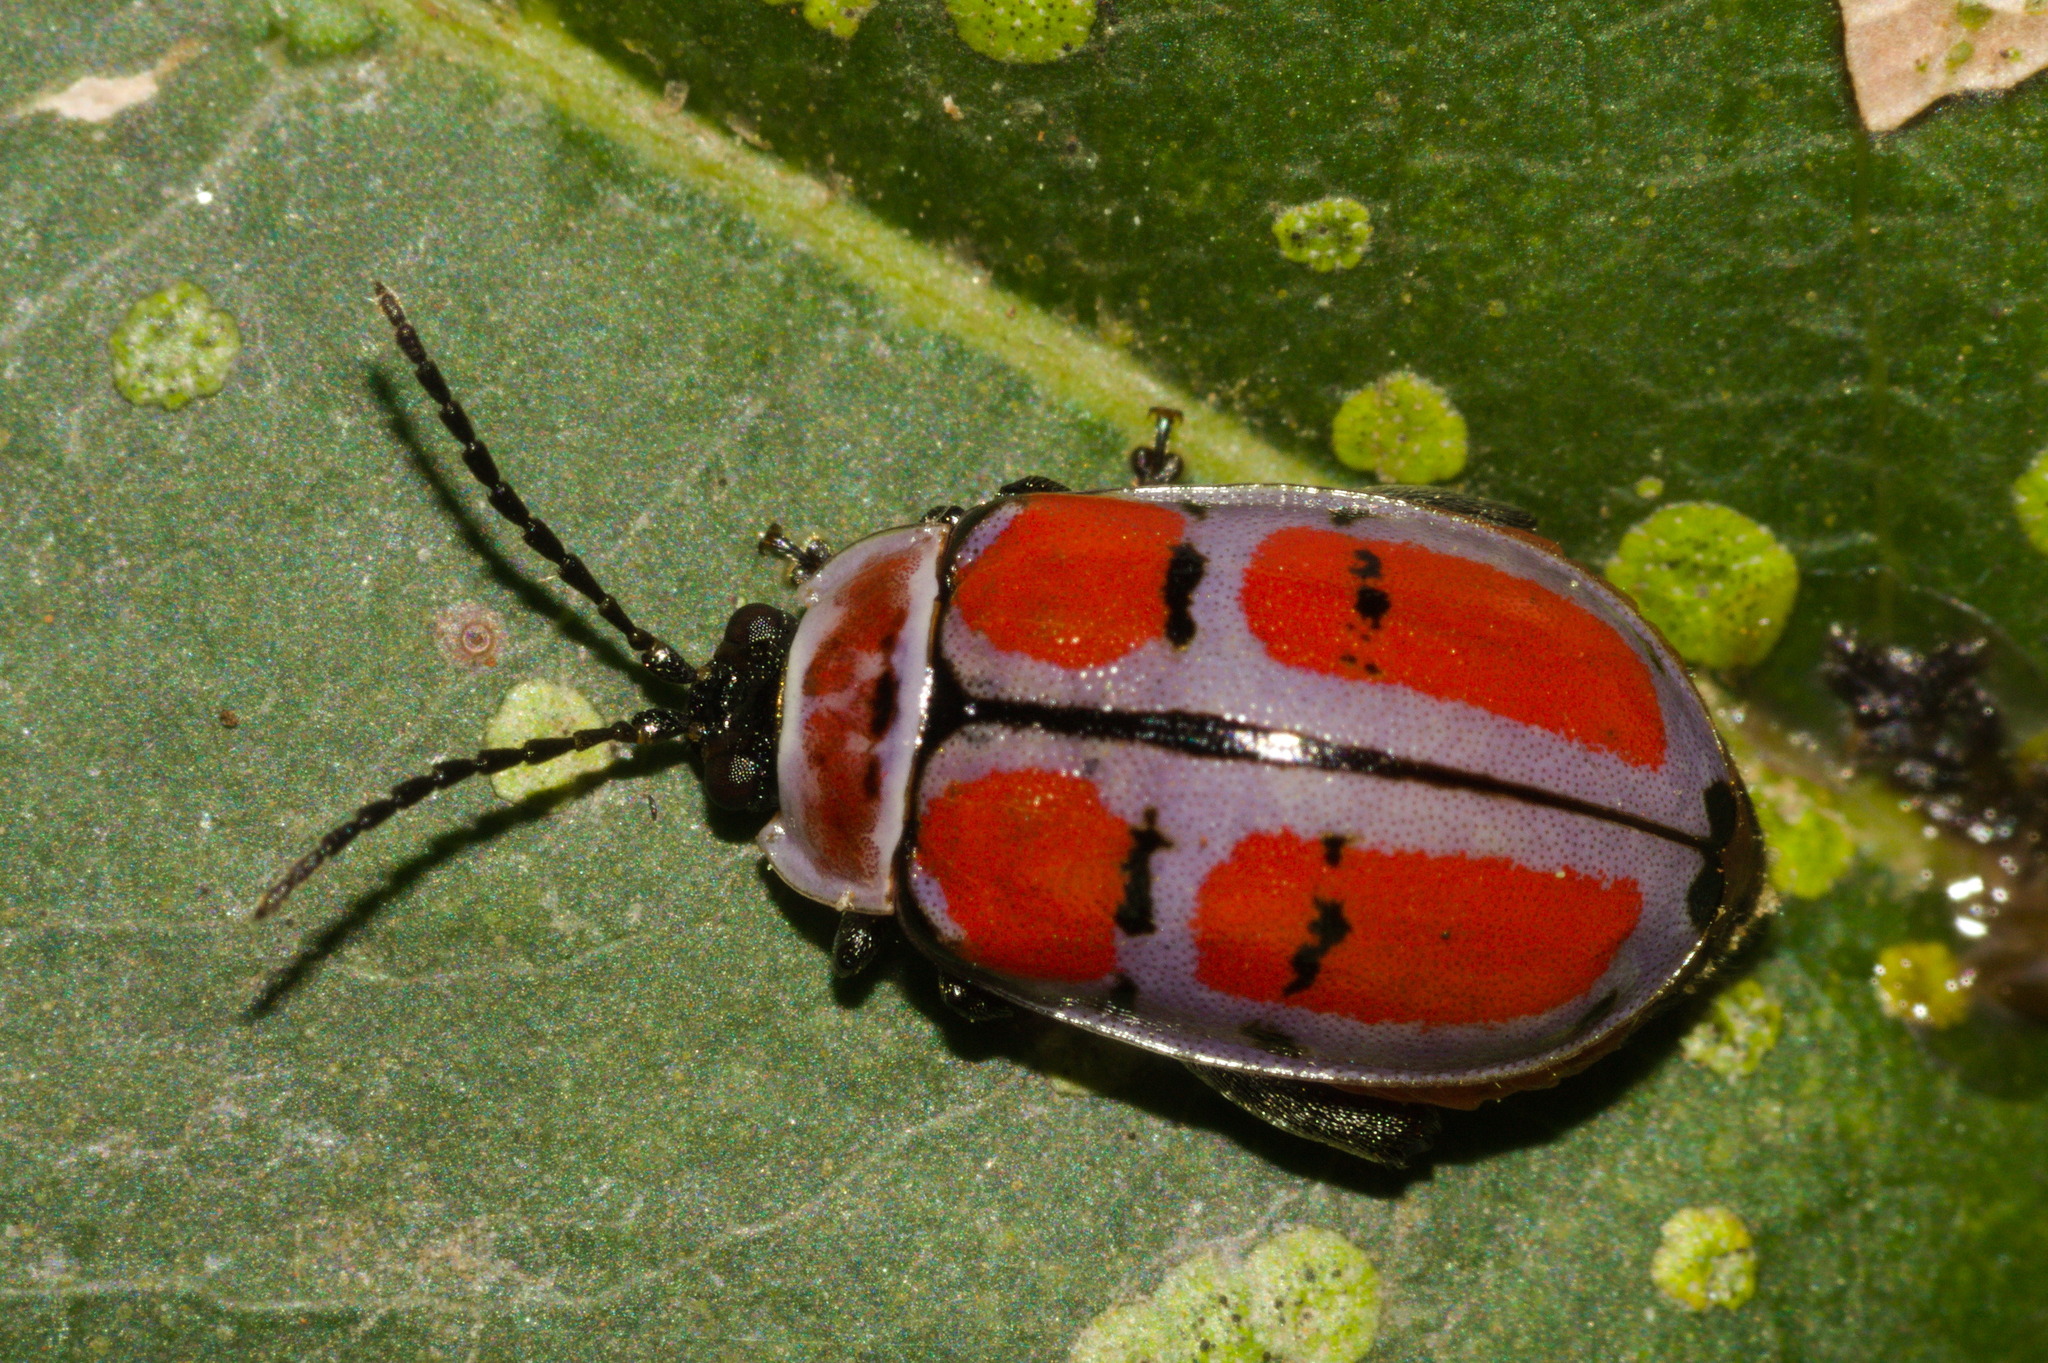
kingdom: Animalia
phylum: Arthropoda
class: Insecta
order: Coleoptera
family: Chrysomelidae
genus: Alagoasa
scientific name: Alagoasa scissa
